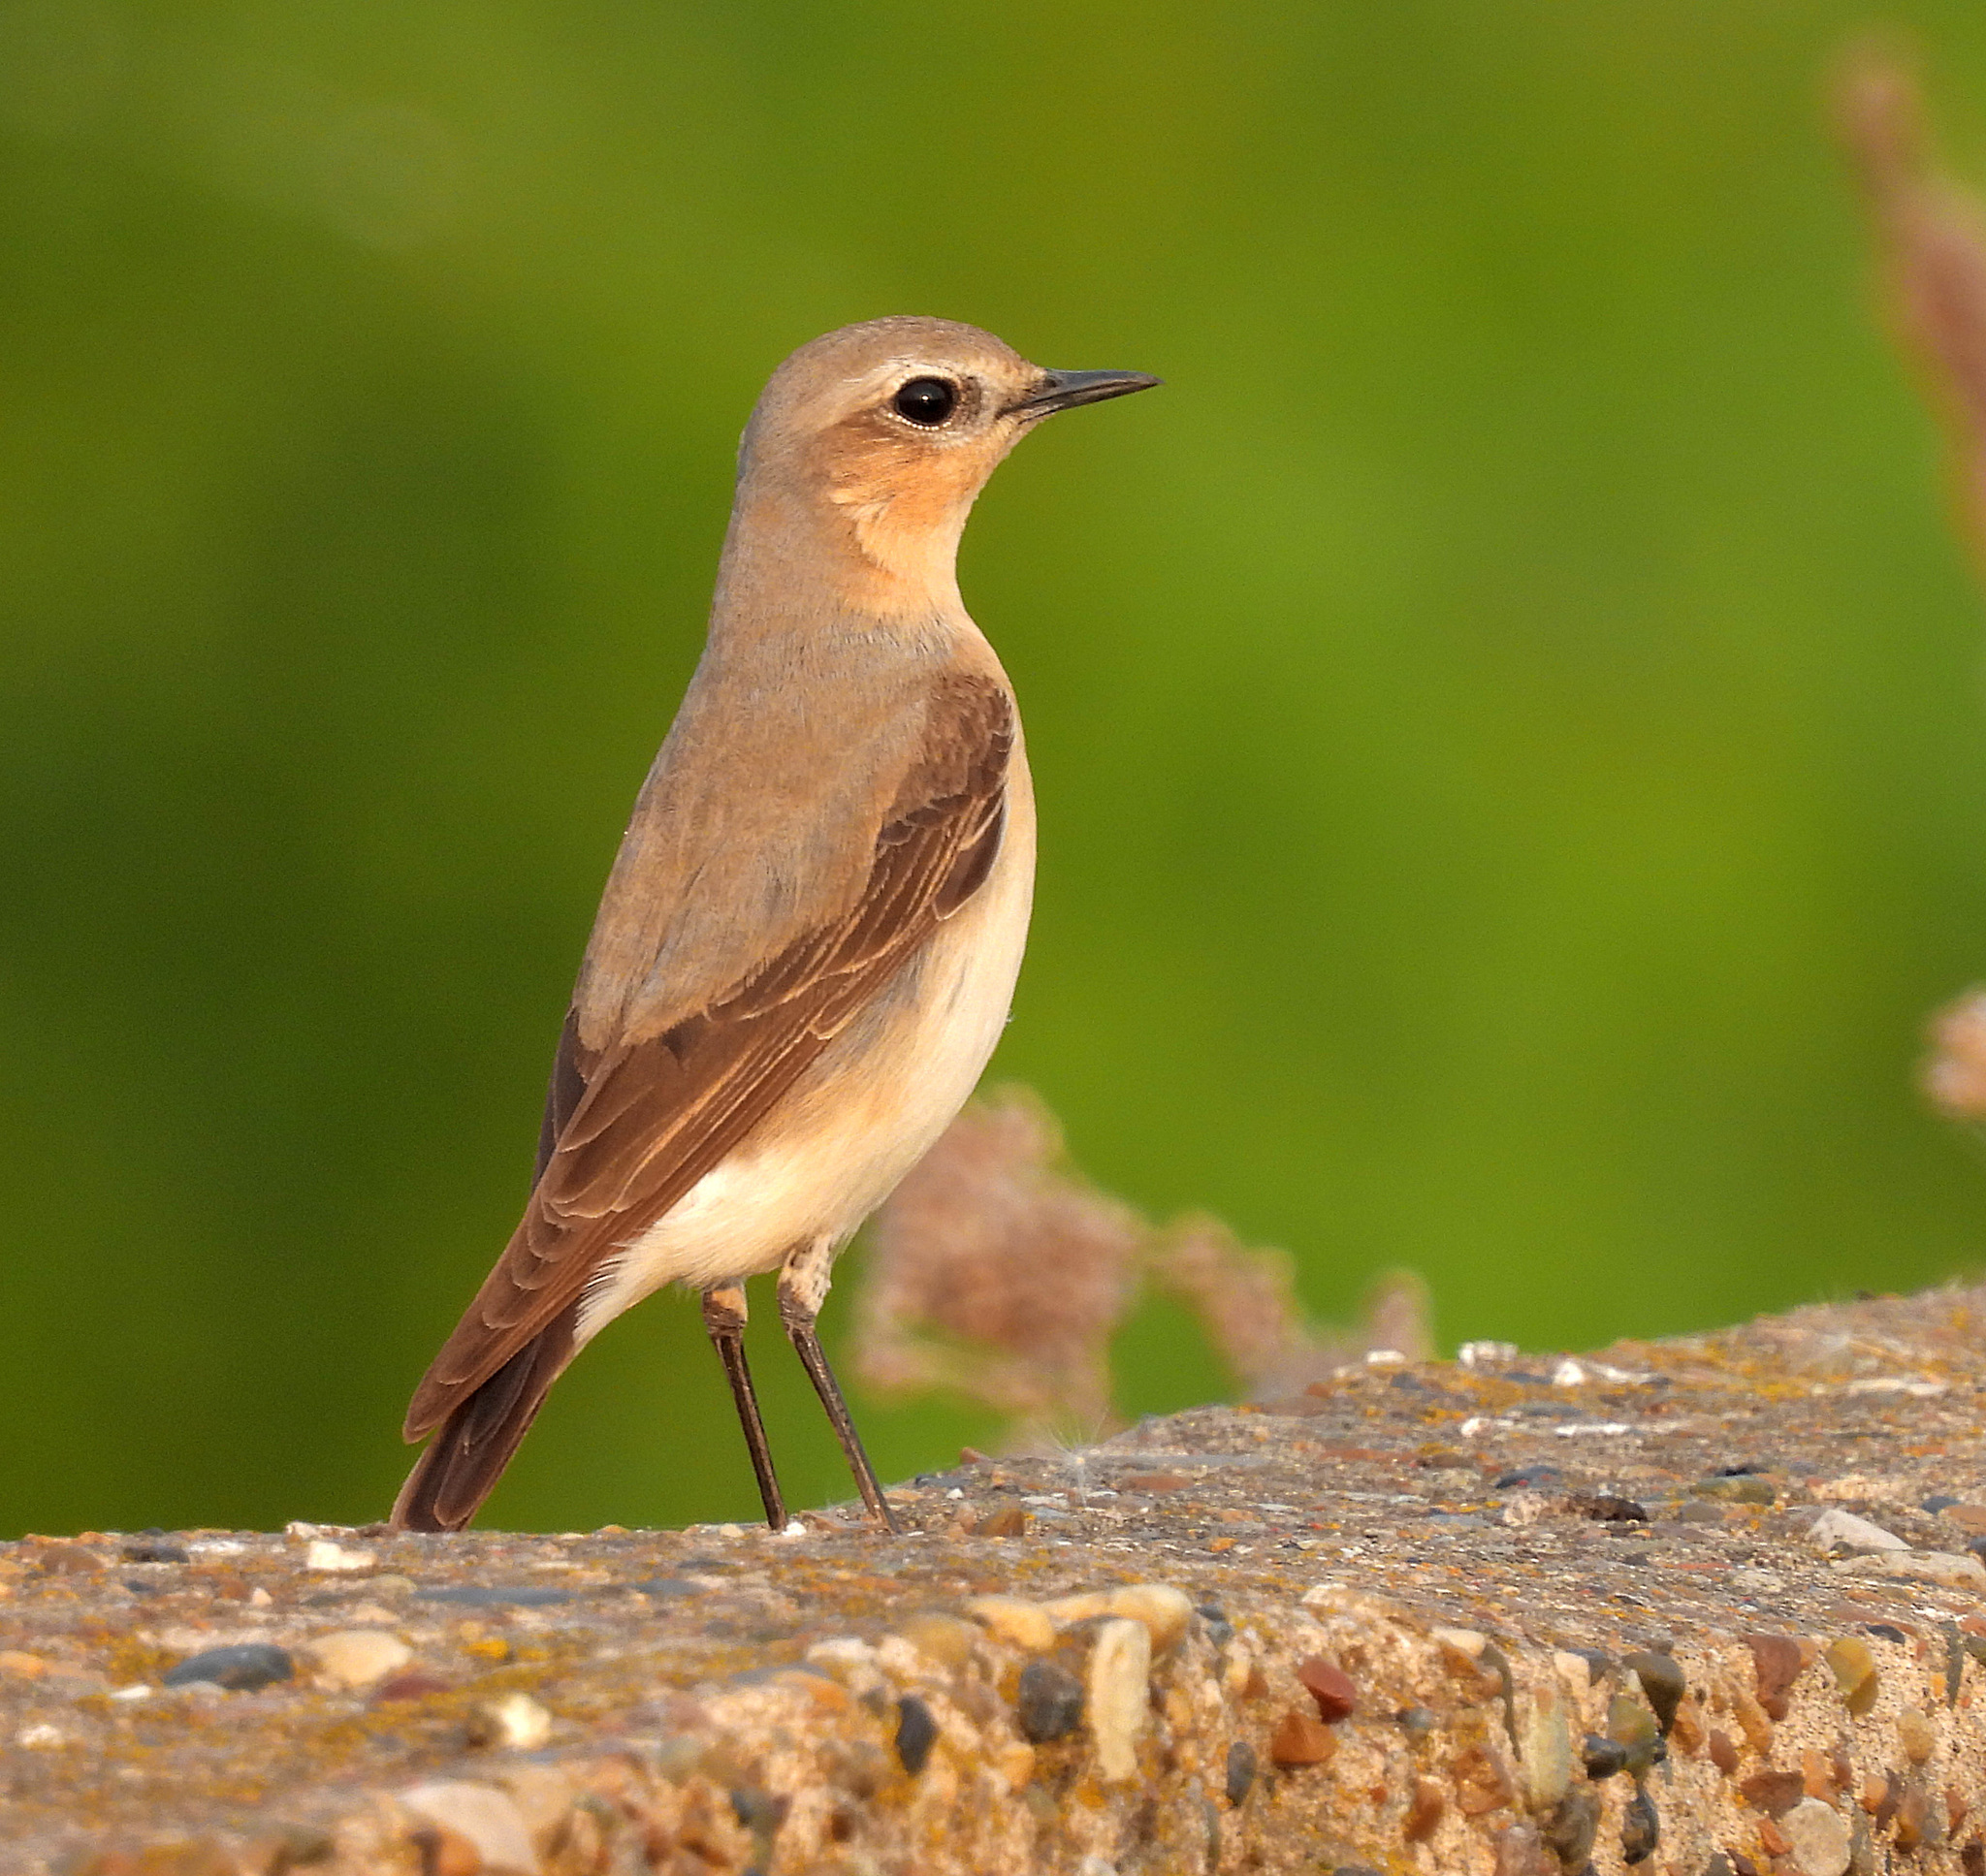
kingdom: Animalia
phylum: Chordata
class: Aves
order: Passeriformes
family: Muscicapidae
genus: Oenanthe
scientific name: Oenanthe oenanthe
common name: Northern wheatear
